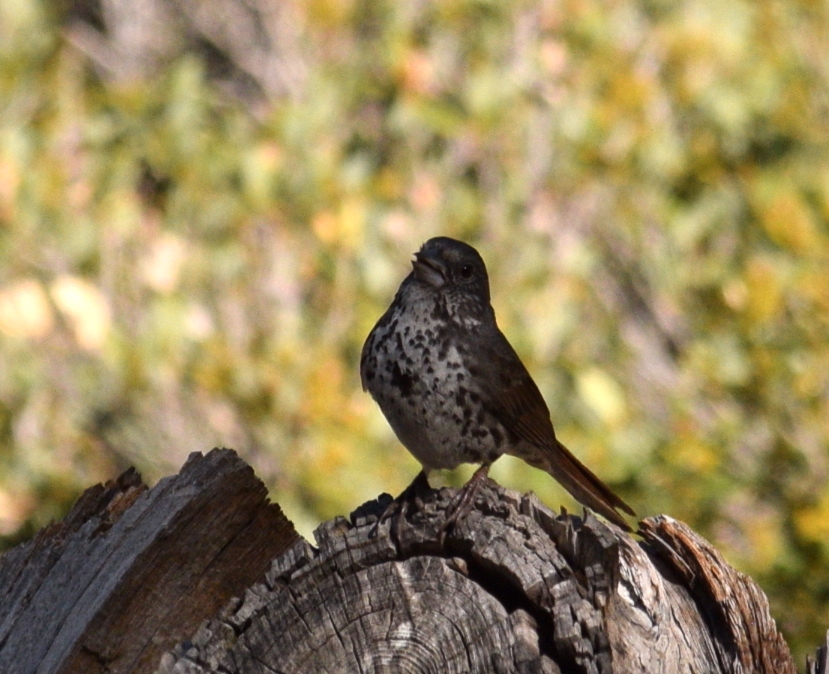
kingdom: Animalia
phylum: Chordata
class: Aves
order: Passeriformes
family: Passerellidae
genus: Passerella
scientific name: Passerella iliaca
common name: Fox sparrow
